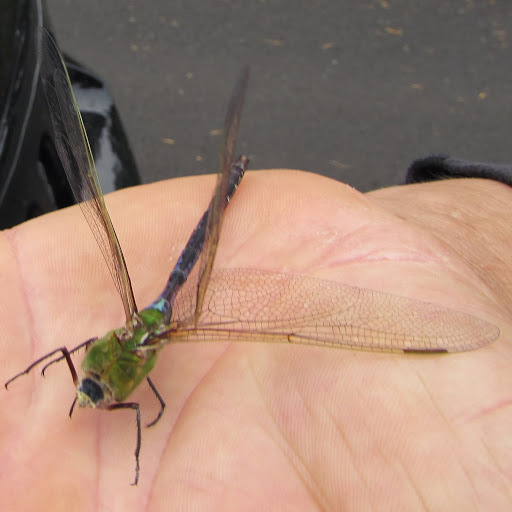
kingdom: Animalia
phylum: Arthropoda
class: Insecta
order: Odonata
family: Aeshnidae
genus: Anax
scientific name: Anax junius
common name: Common green darner
